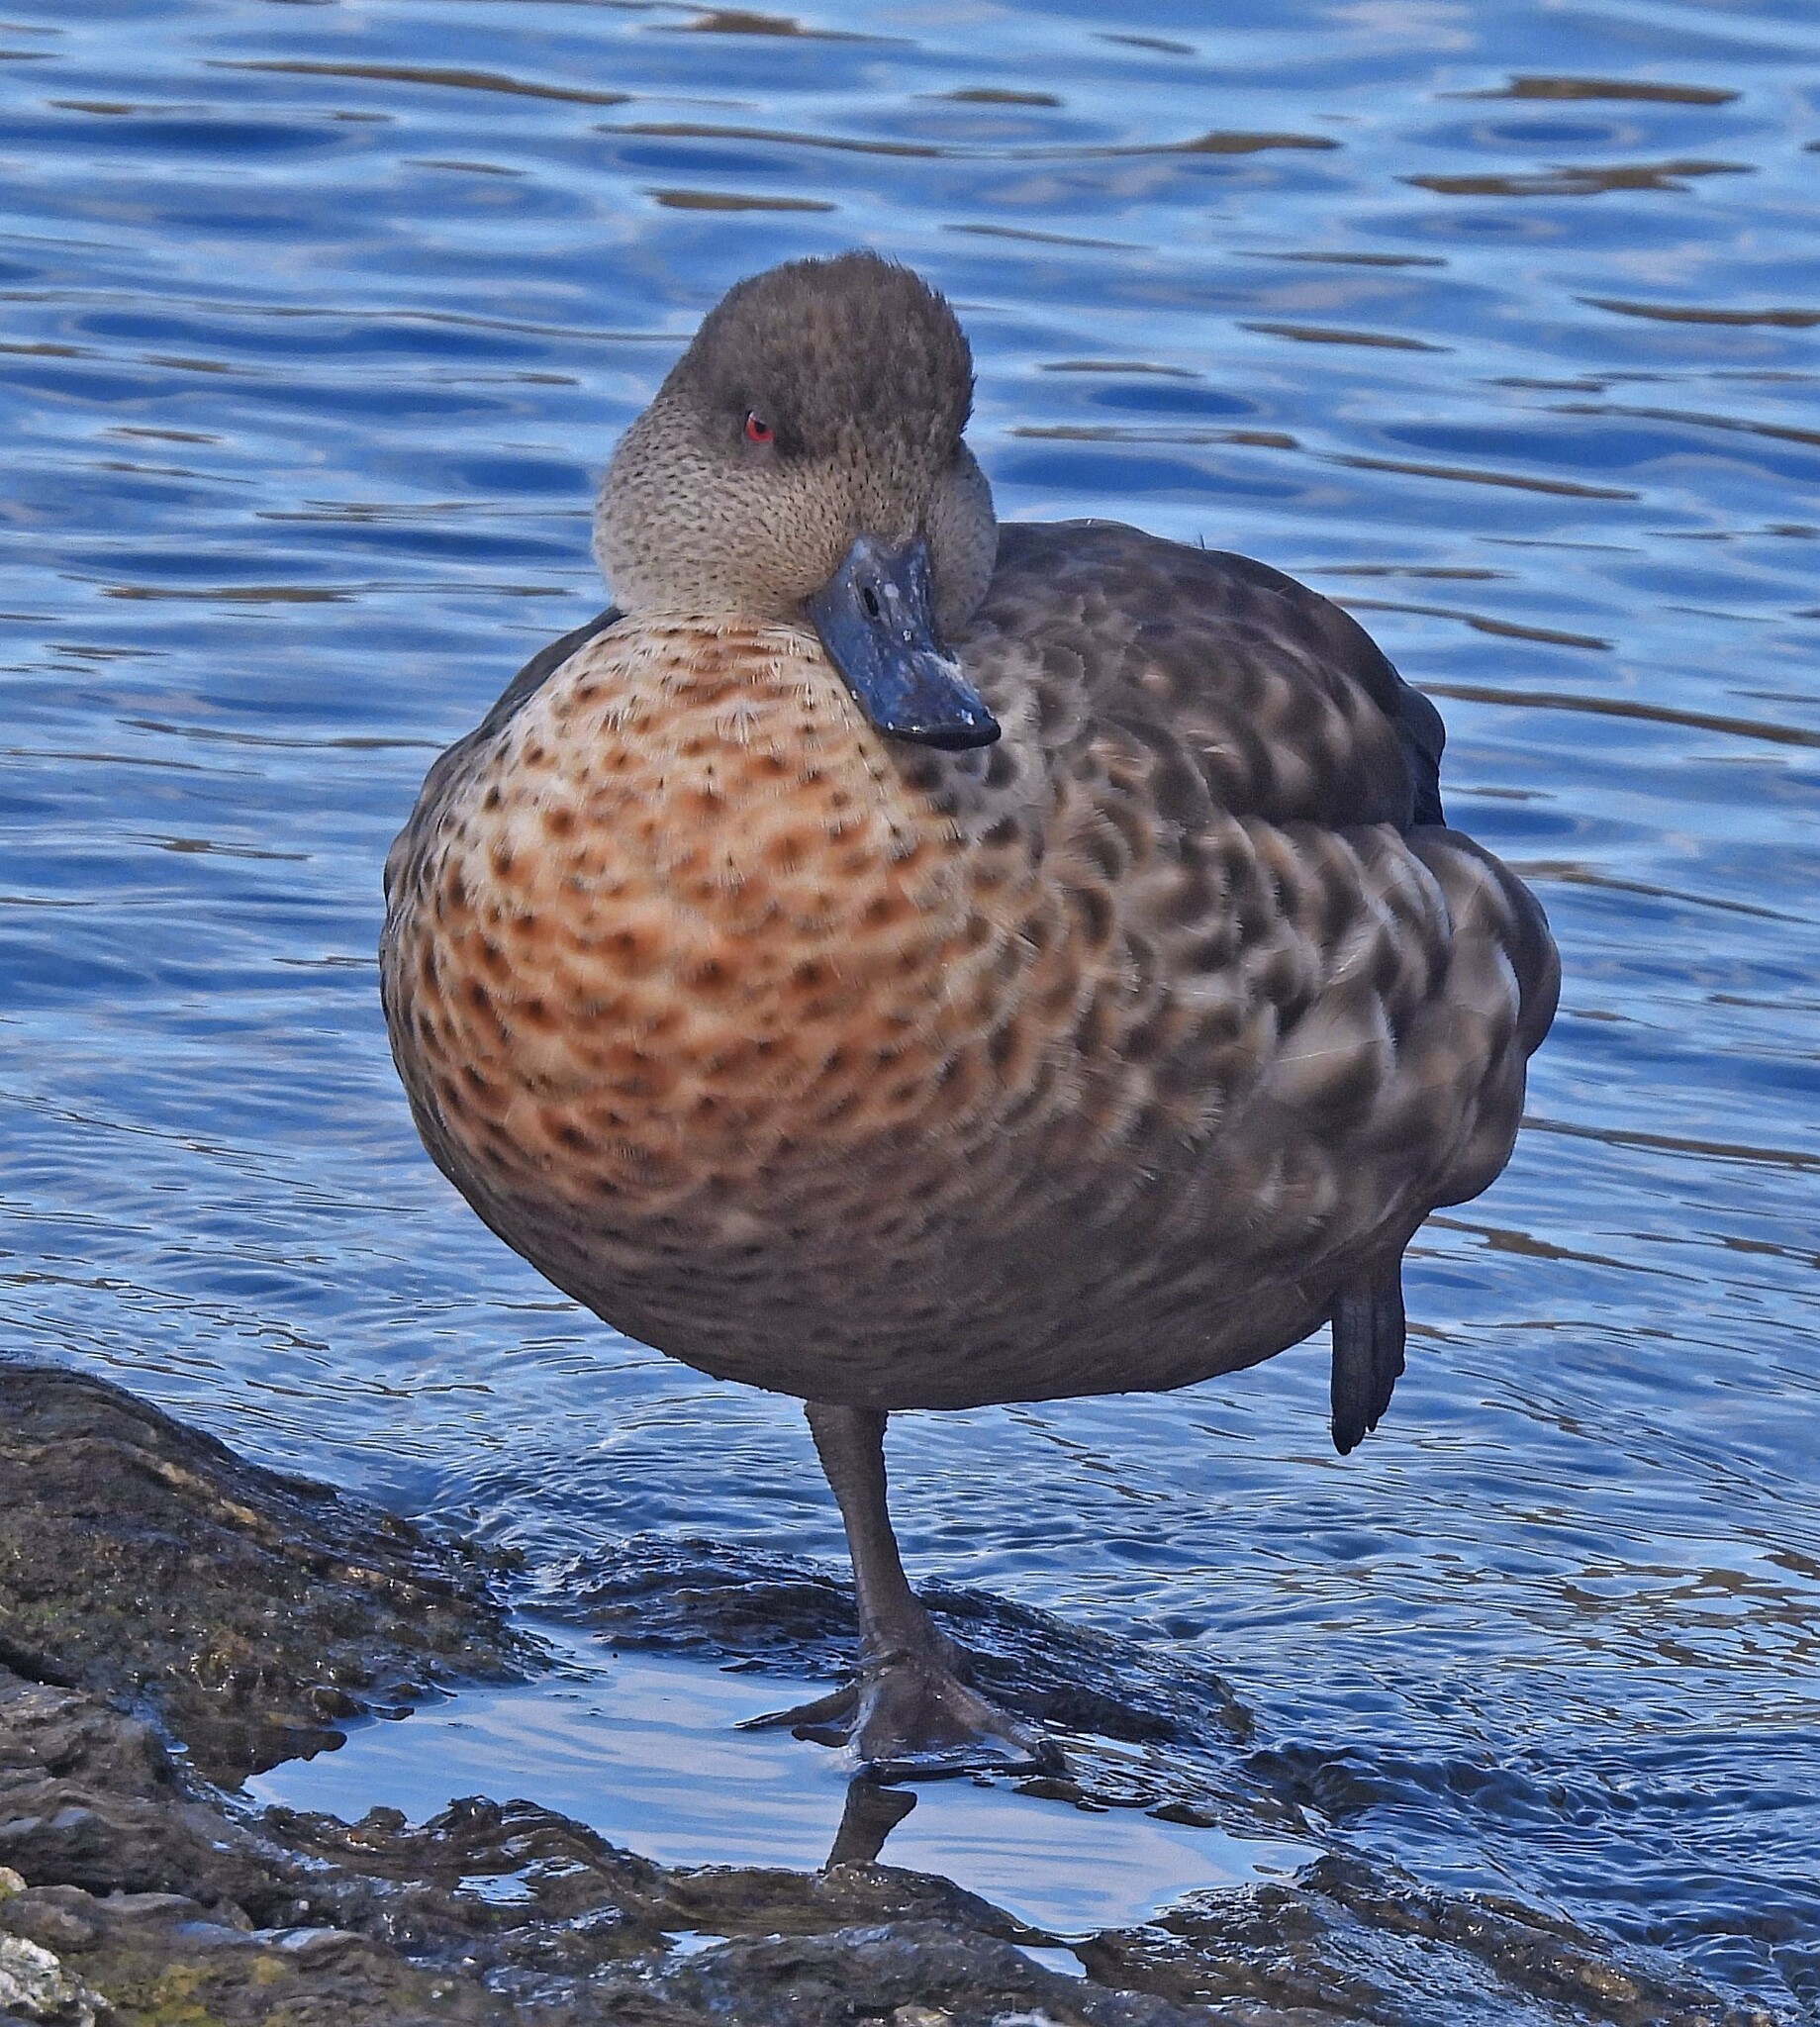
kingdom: Animalia
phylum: Chordata
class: Aves
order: Anseriformes
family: Anatidae
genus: Lophonetta
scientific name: Lophonetta specularioides
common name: Crested duck
